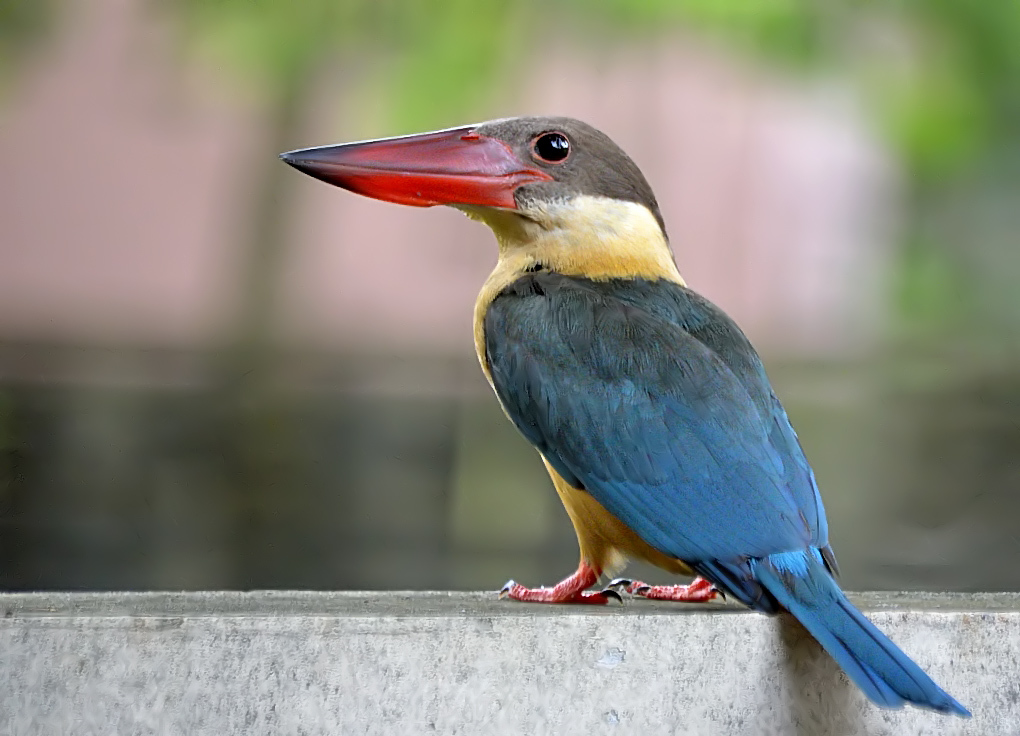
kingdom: Animalia
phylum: Chordata
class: Aves
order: Coraciiformes
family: Alcedinidae
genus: Pelargopsis
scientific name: Pelargopsis capensis
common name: Stork-billed kingfisher
